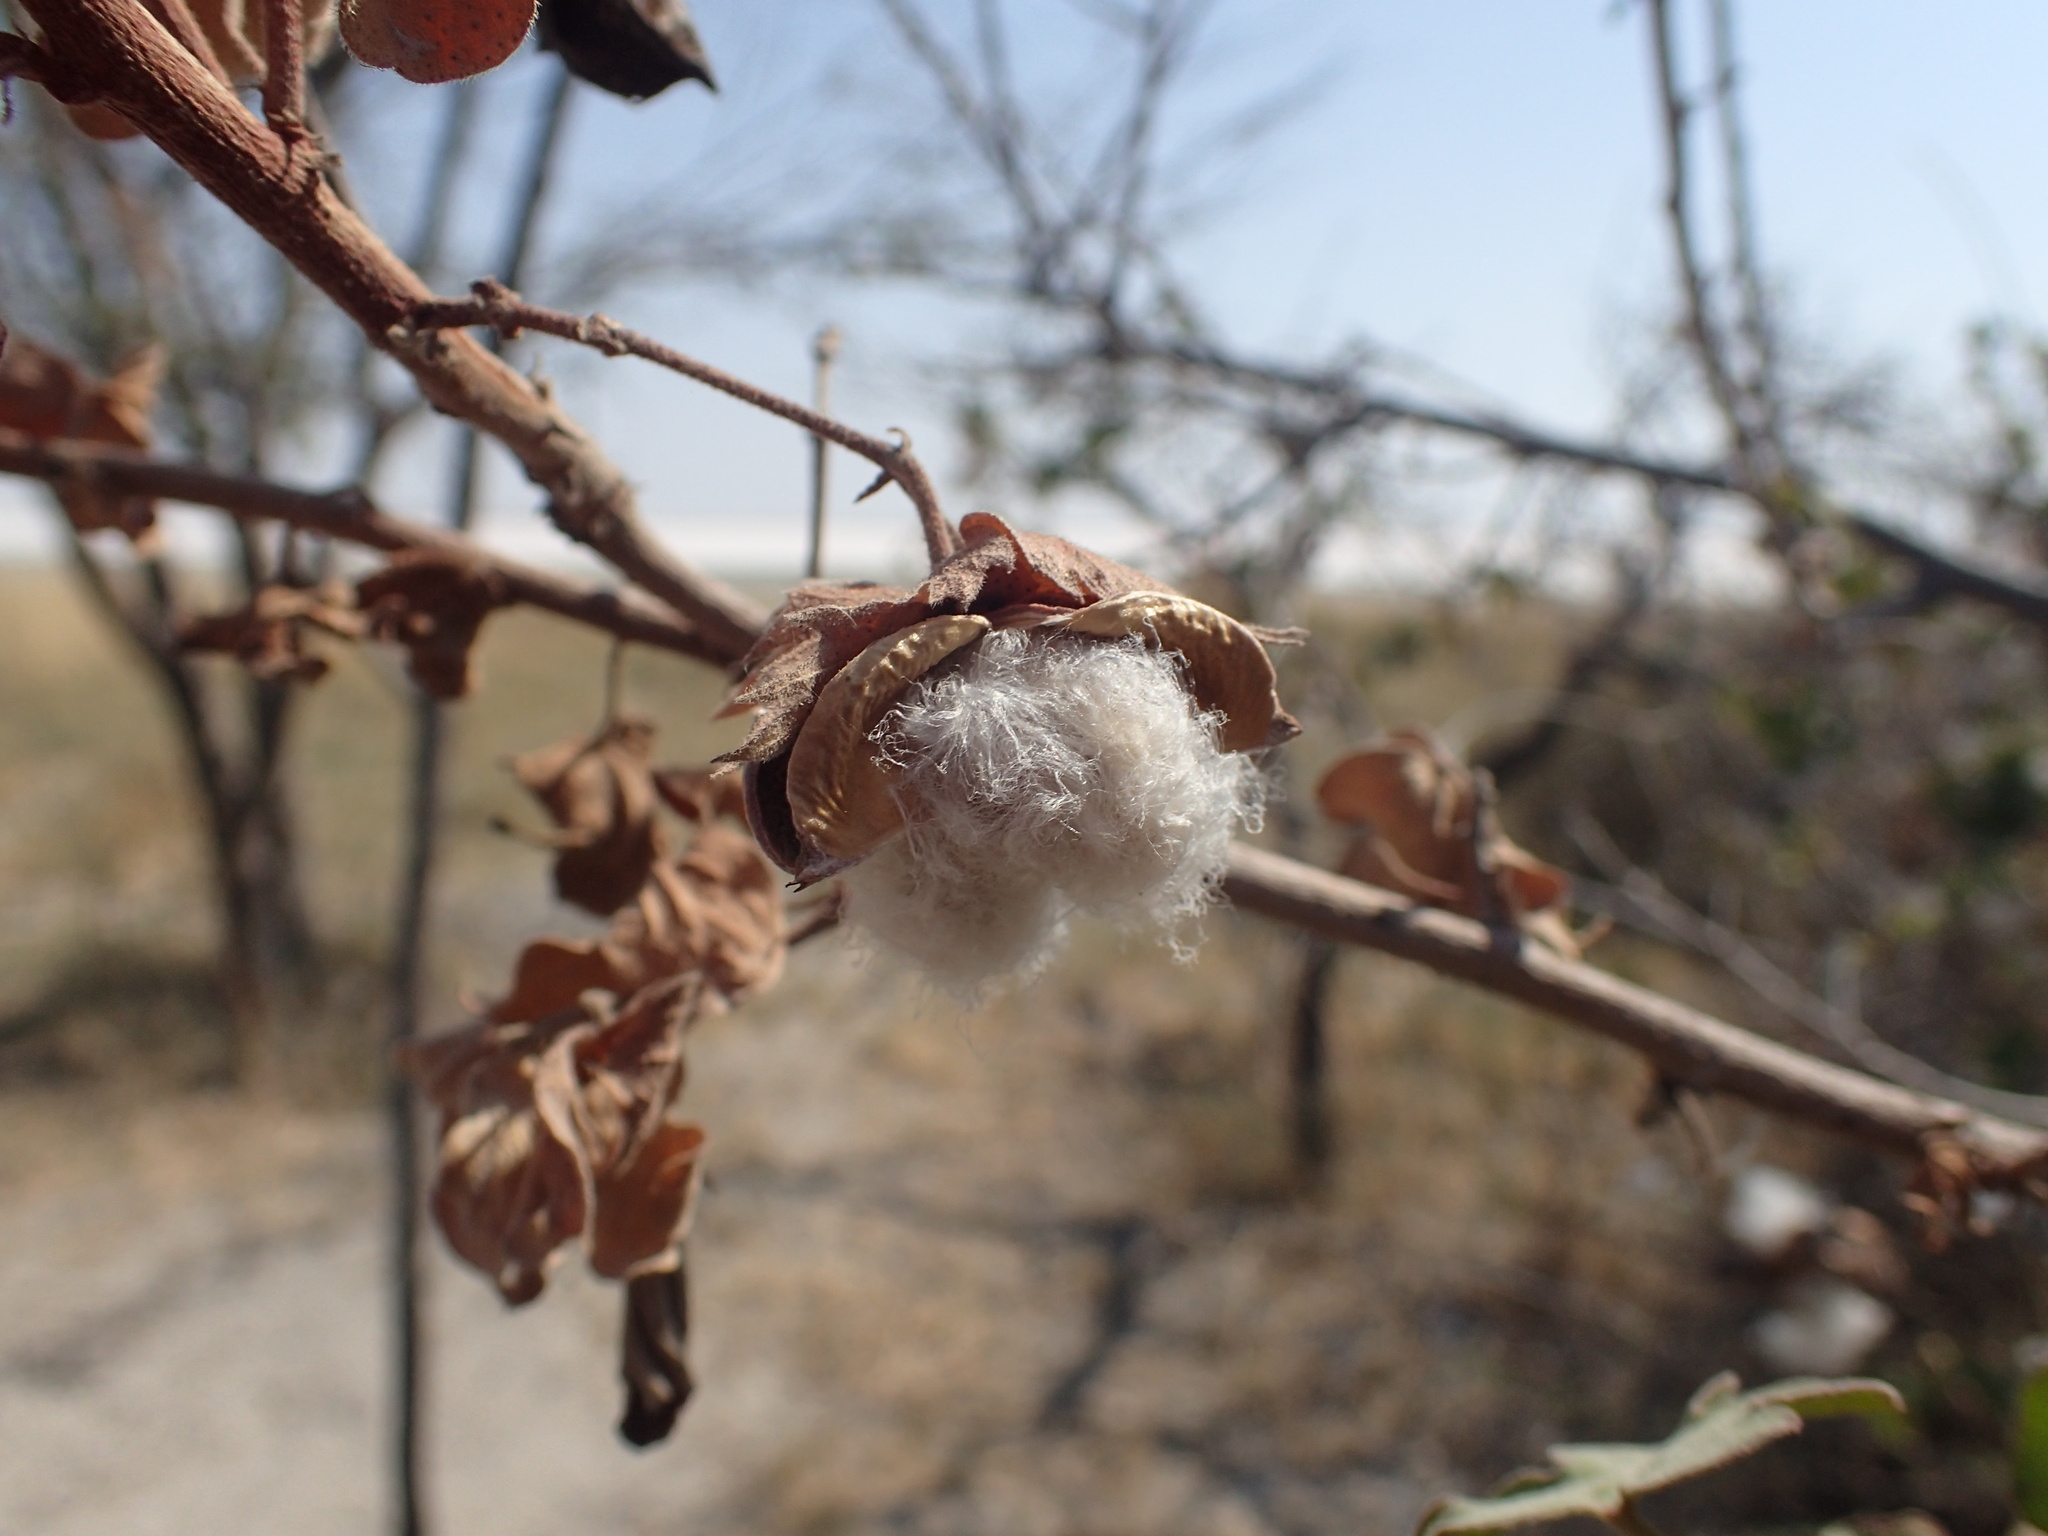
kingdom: Plantae
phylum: Tracheophyta
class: Magnoliopsida
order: Malvales
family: Malvaceae
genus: Gossypium
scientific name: Gossypium herbaceum
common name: Levant cotton
